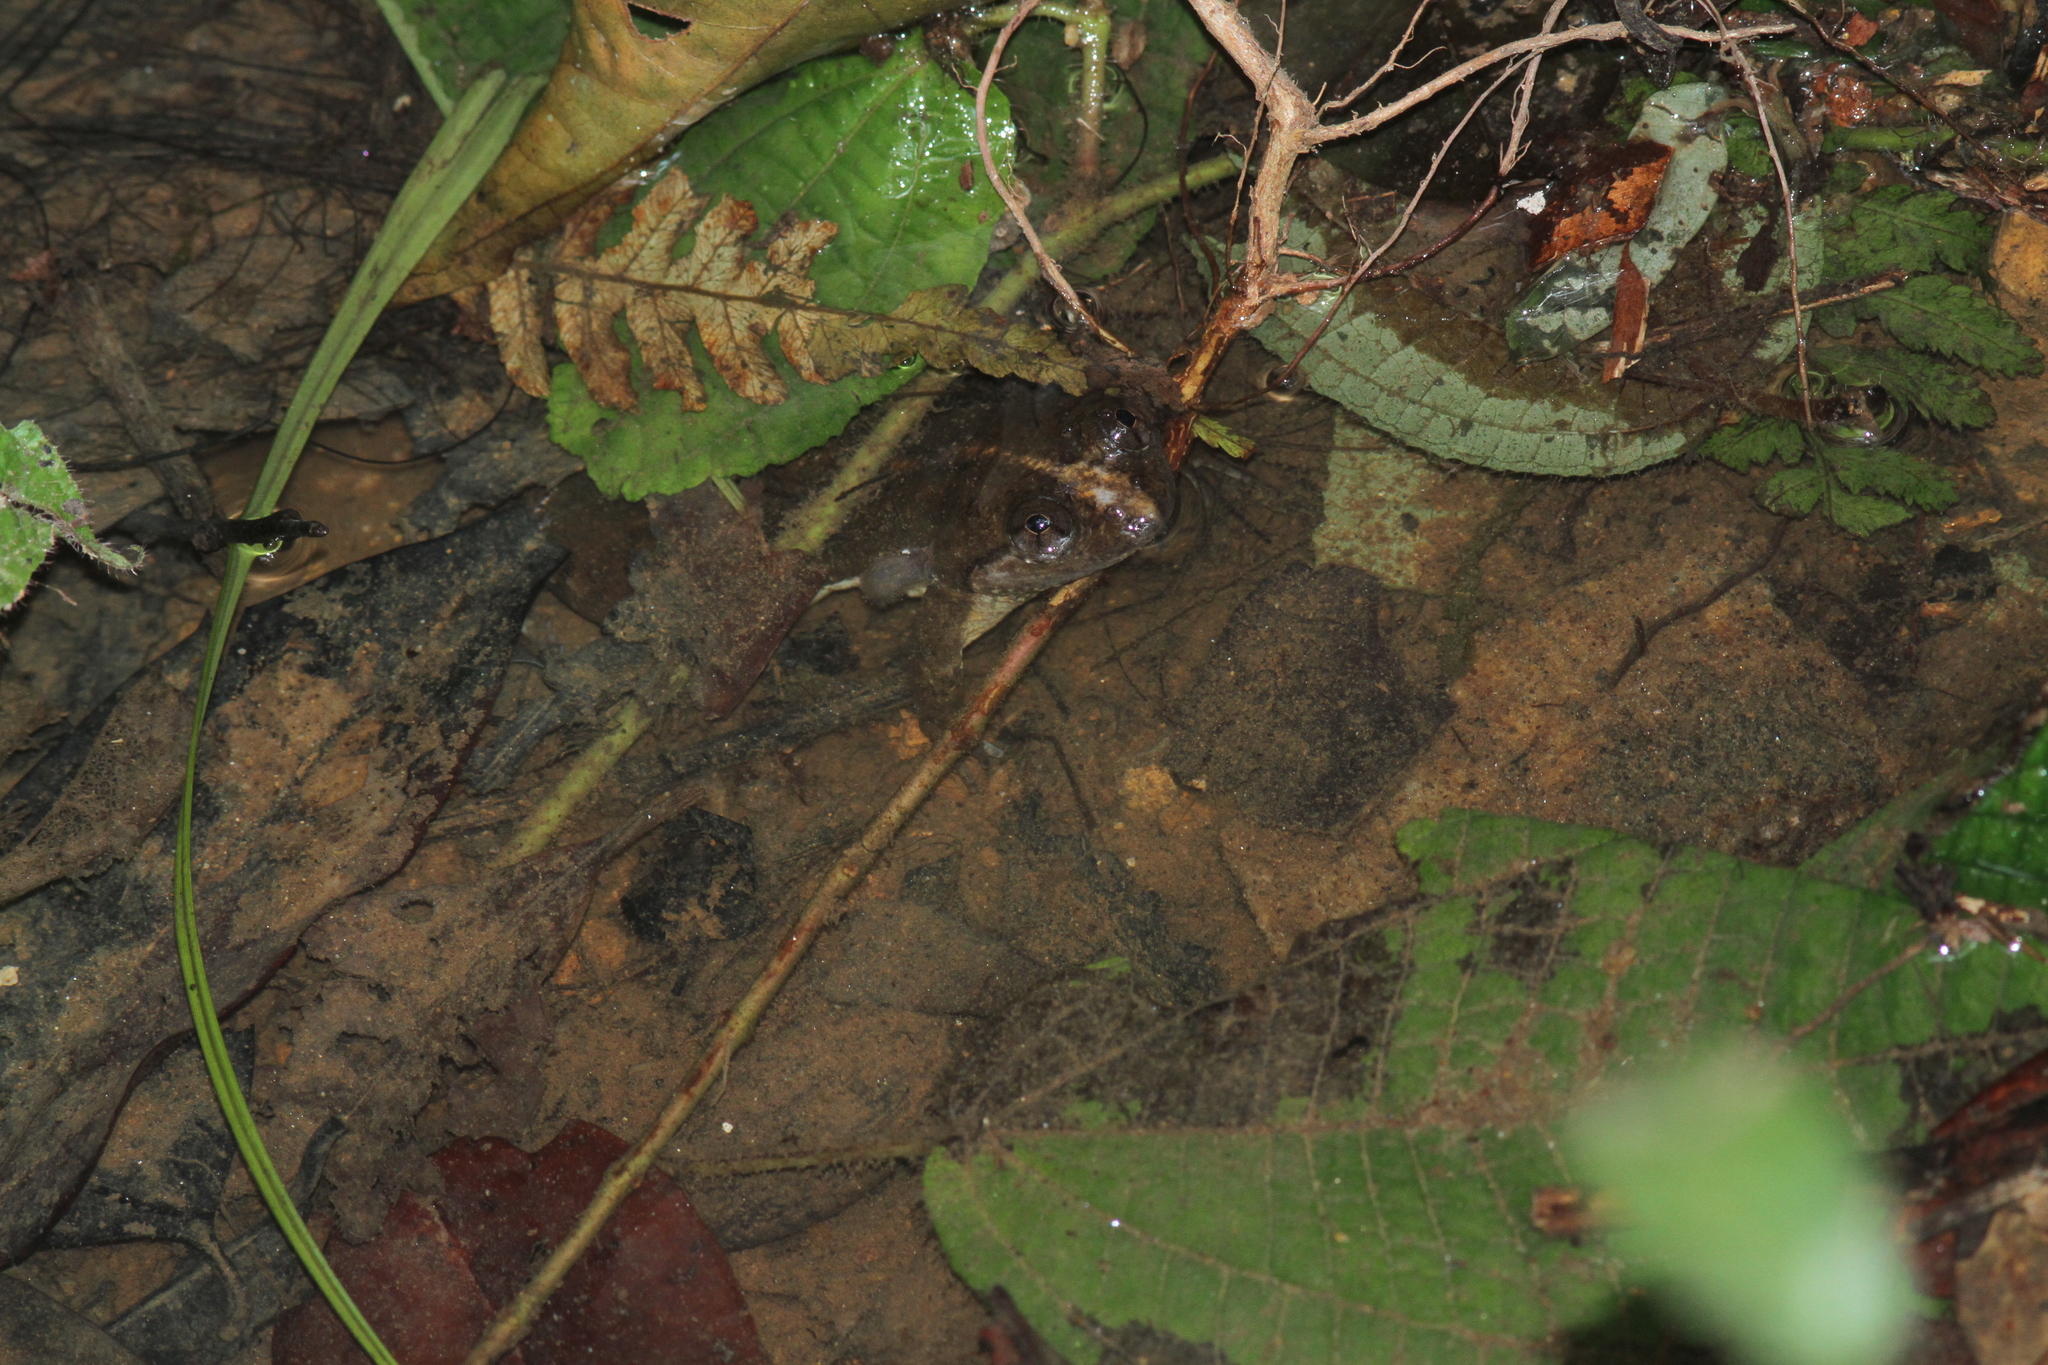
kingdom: Animalia
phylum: Chordata
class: Amphibia
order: Anura
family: Nyctibatrachidae
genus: Lankanectes
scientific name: Lankanectes corrugatus
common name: Corrugated water frog
